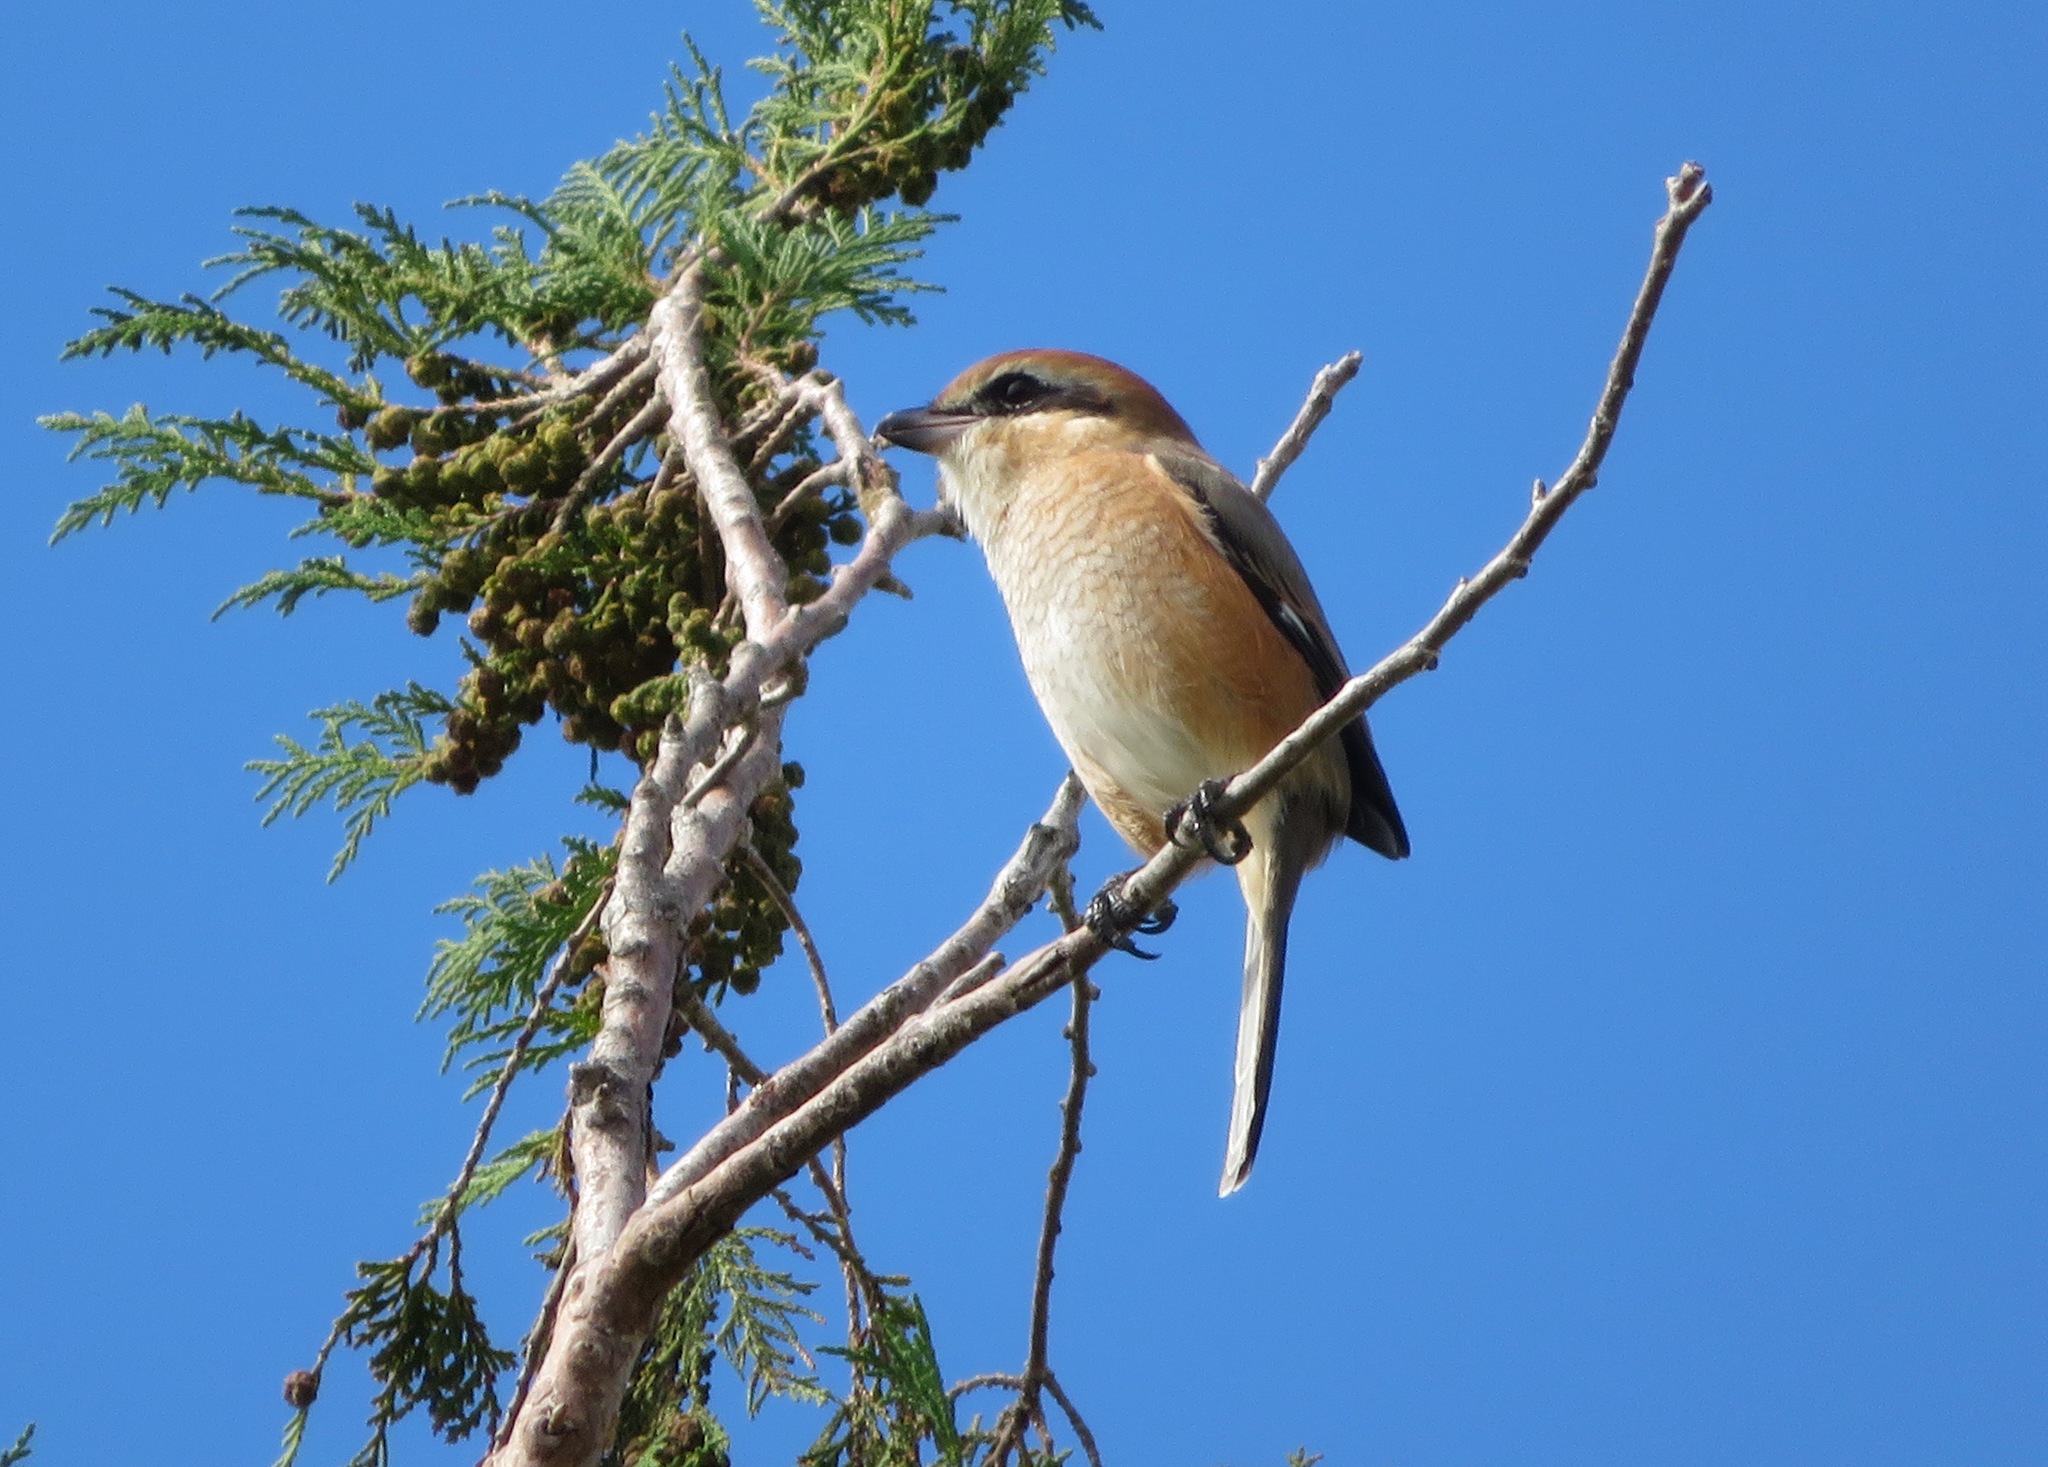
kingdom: Animalia
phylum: Chordata
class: Aves
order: Passeriformes
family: Laniidae
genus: Lanius
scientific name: Lanius bucephalus
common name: Bull-headed shrike
